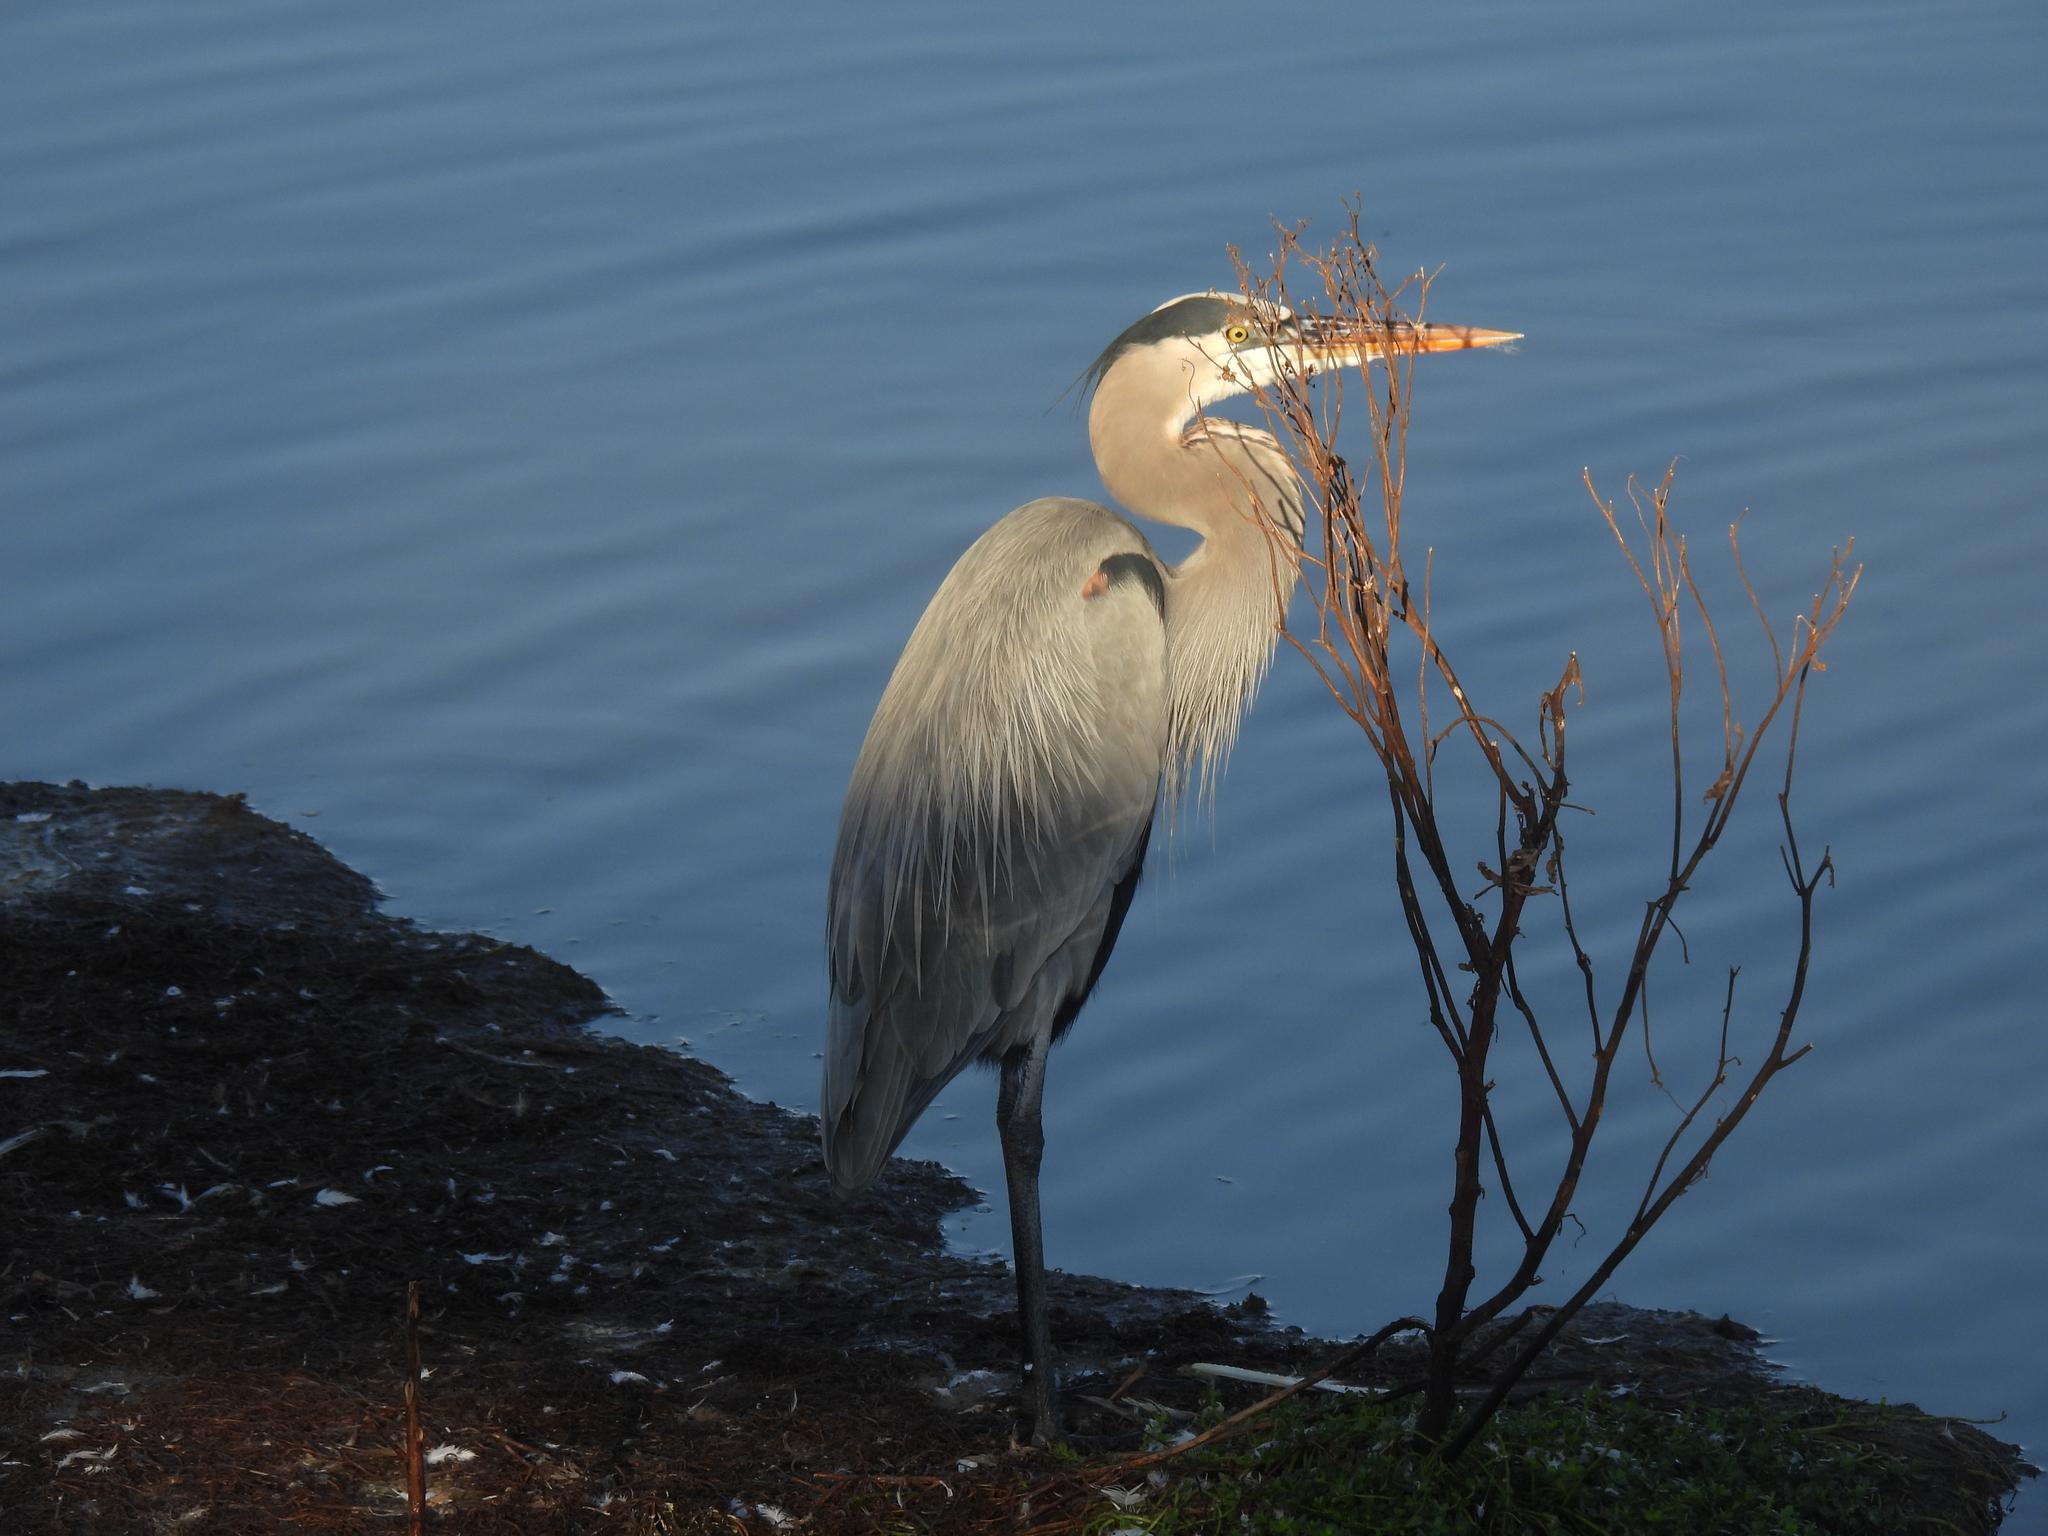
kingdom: Animalia
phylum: Chordata
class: Aves
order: Pelecaniformes
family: Ardeidae
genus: Ardea
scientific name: Ardea herodias
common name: Great blue heron
